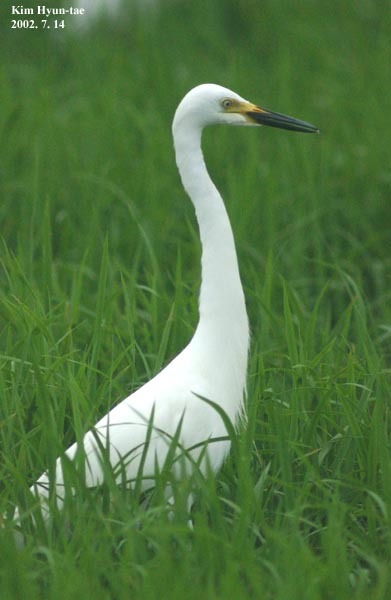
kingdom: Animalia
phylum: Chordata
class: Aves
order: Pelecaniformes
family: Ardeidae
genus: Egretta
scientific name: Egretta intermedia
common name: Intermediate egret
